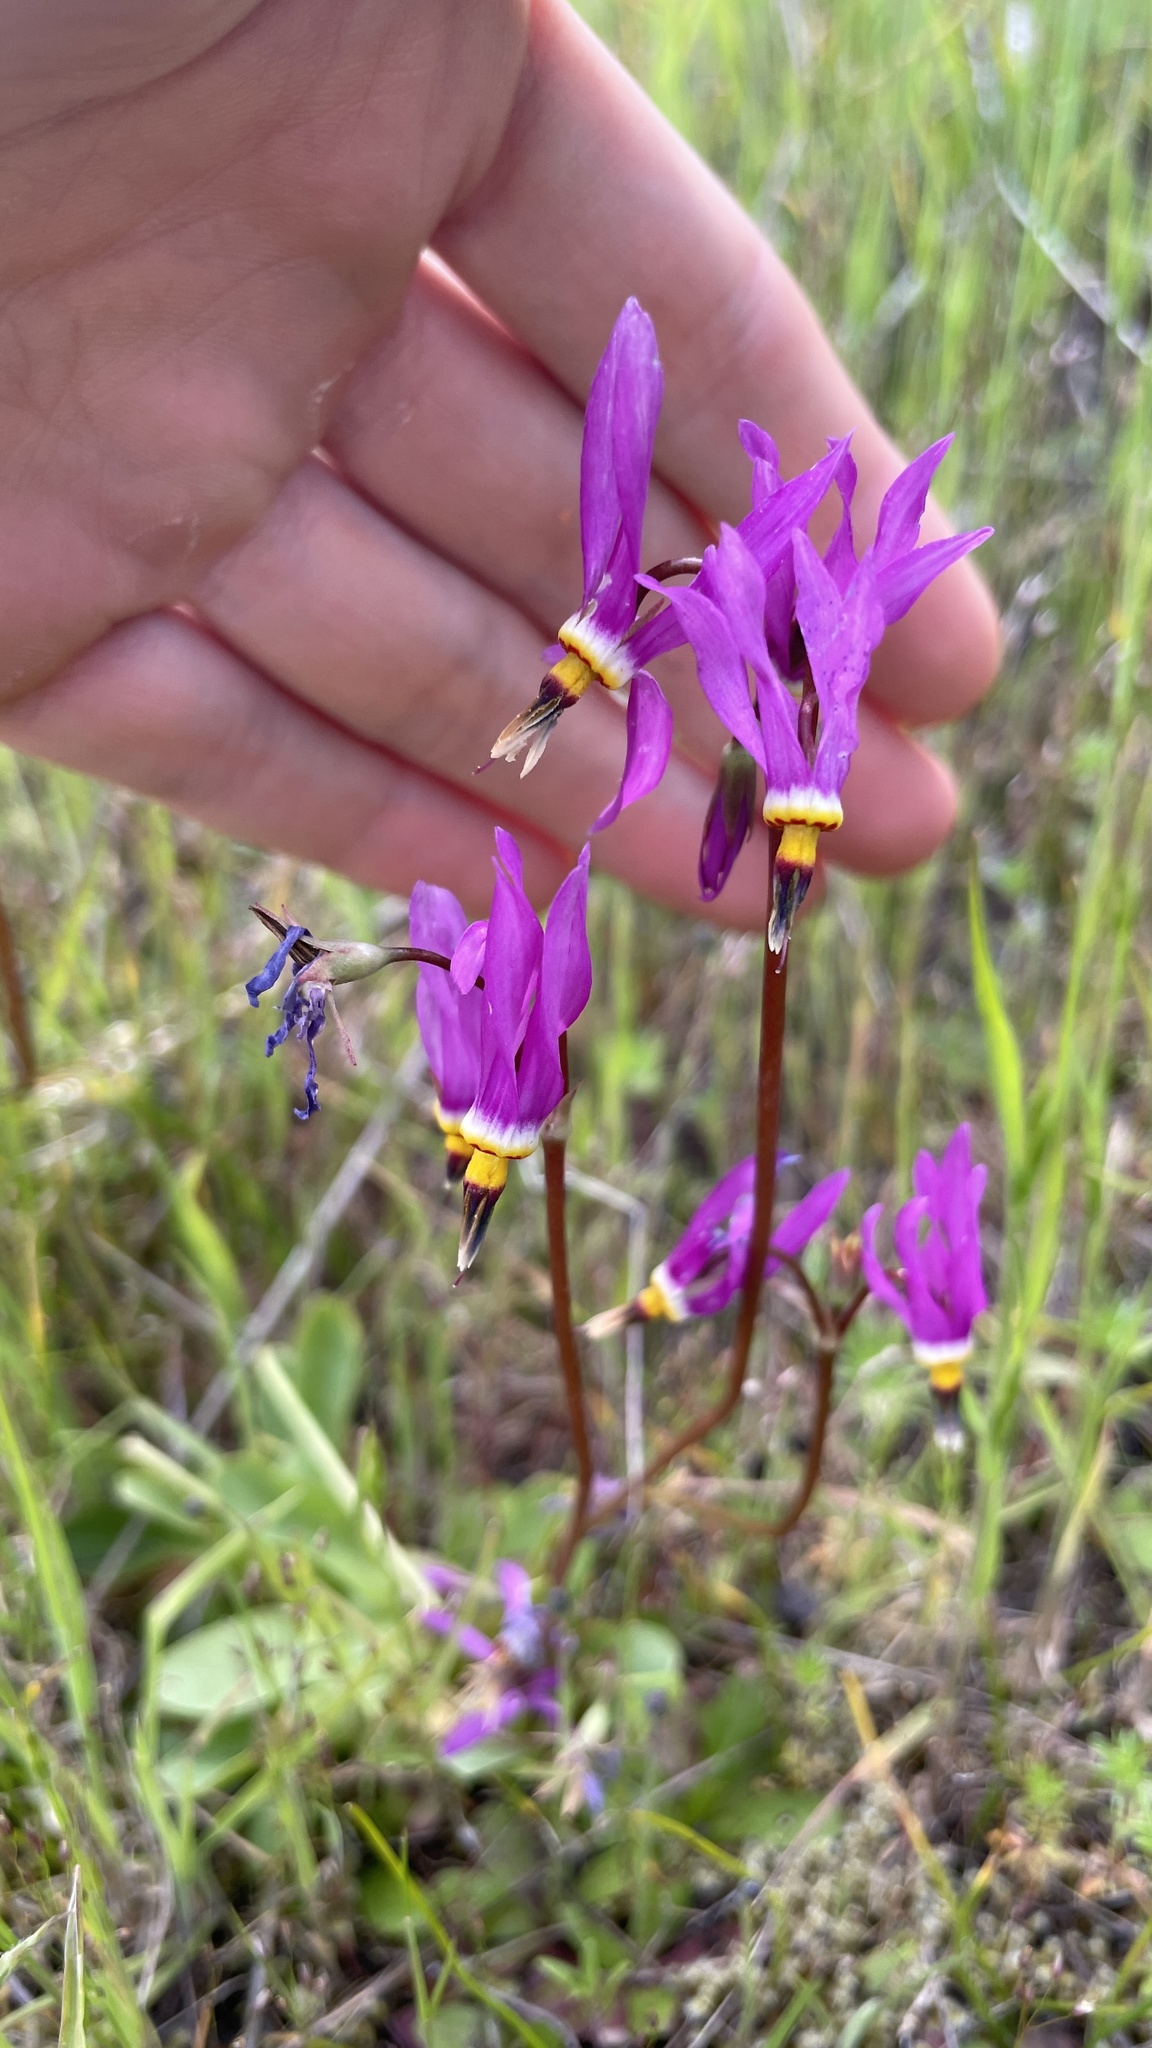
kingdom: Plantae
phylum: Tracheophyta
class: Magnoliopsida
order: Ericales
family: Primulaceae
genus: Dodecatheon
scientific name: Dodecatheon pulchellum
